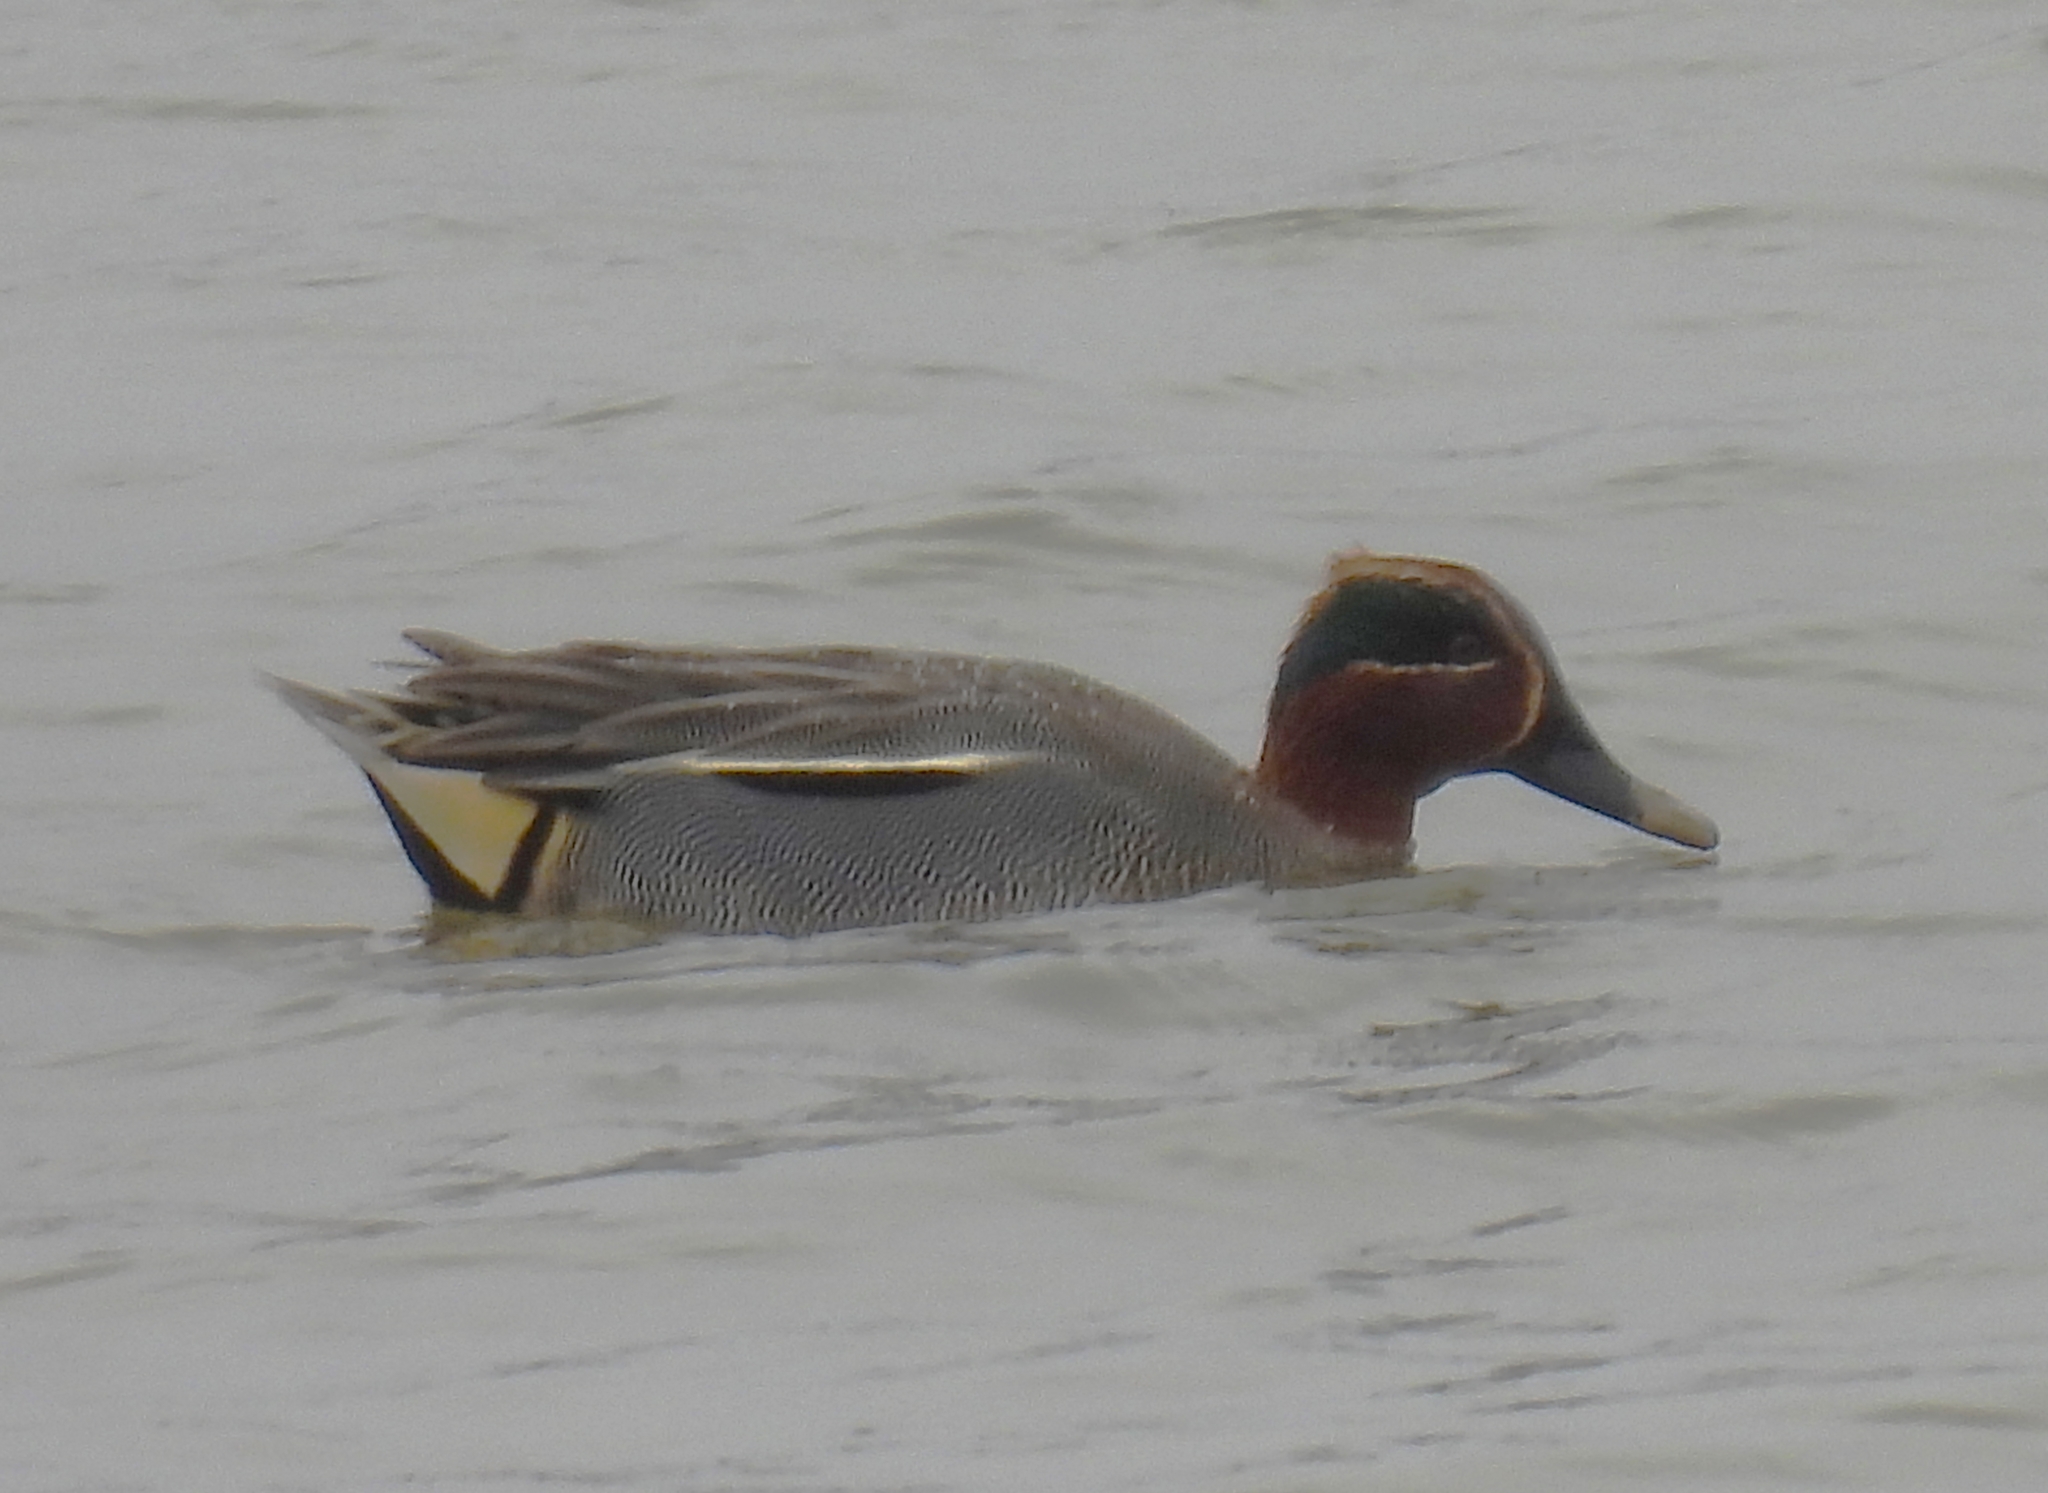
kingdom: Animalia
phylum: Chordata
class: Aves
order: Anseriformes
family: Anatidae
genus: Anas
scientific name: Anas crecca
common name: Eurasian teal
